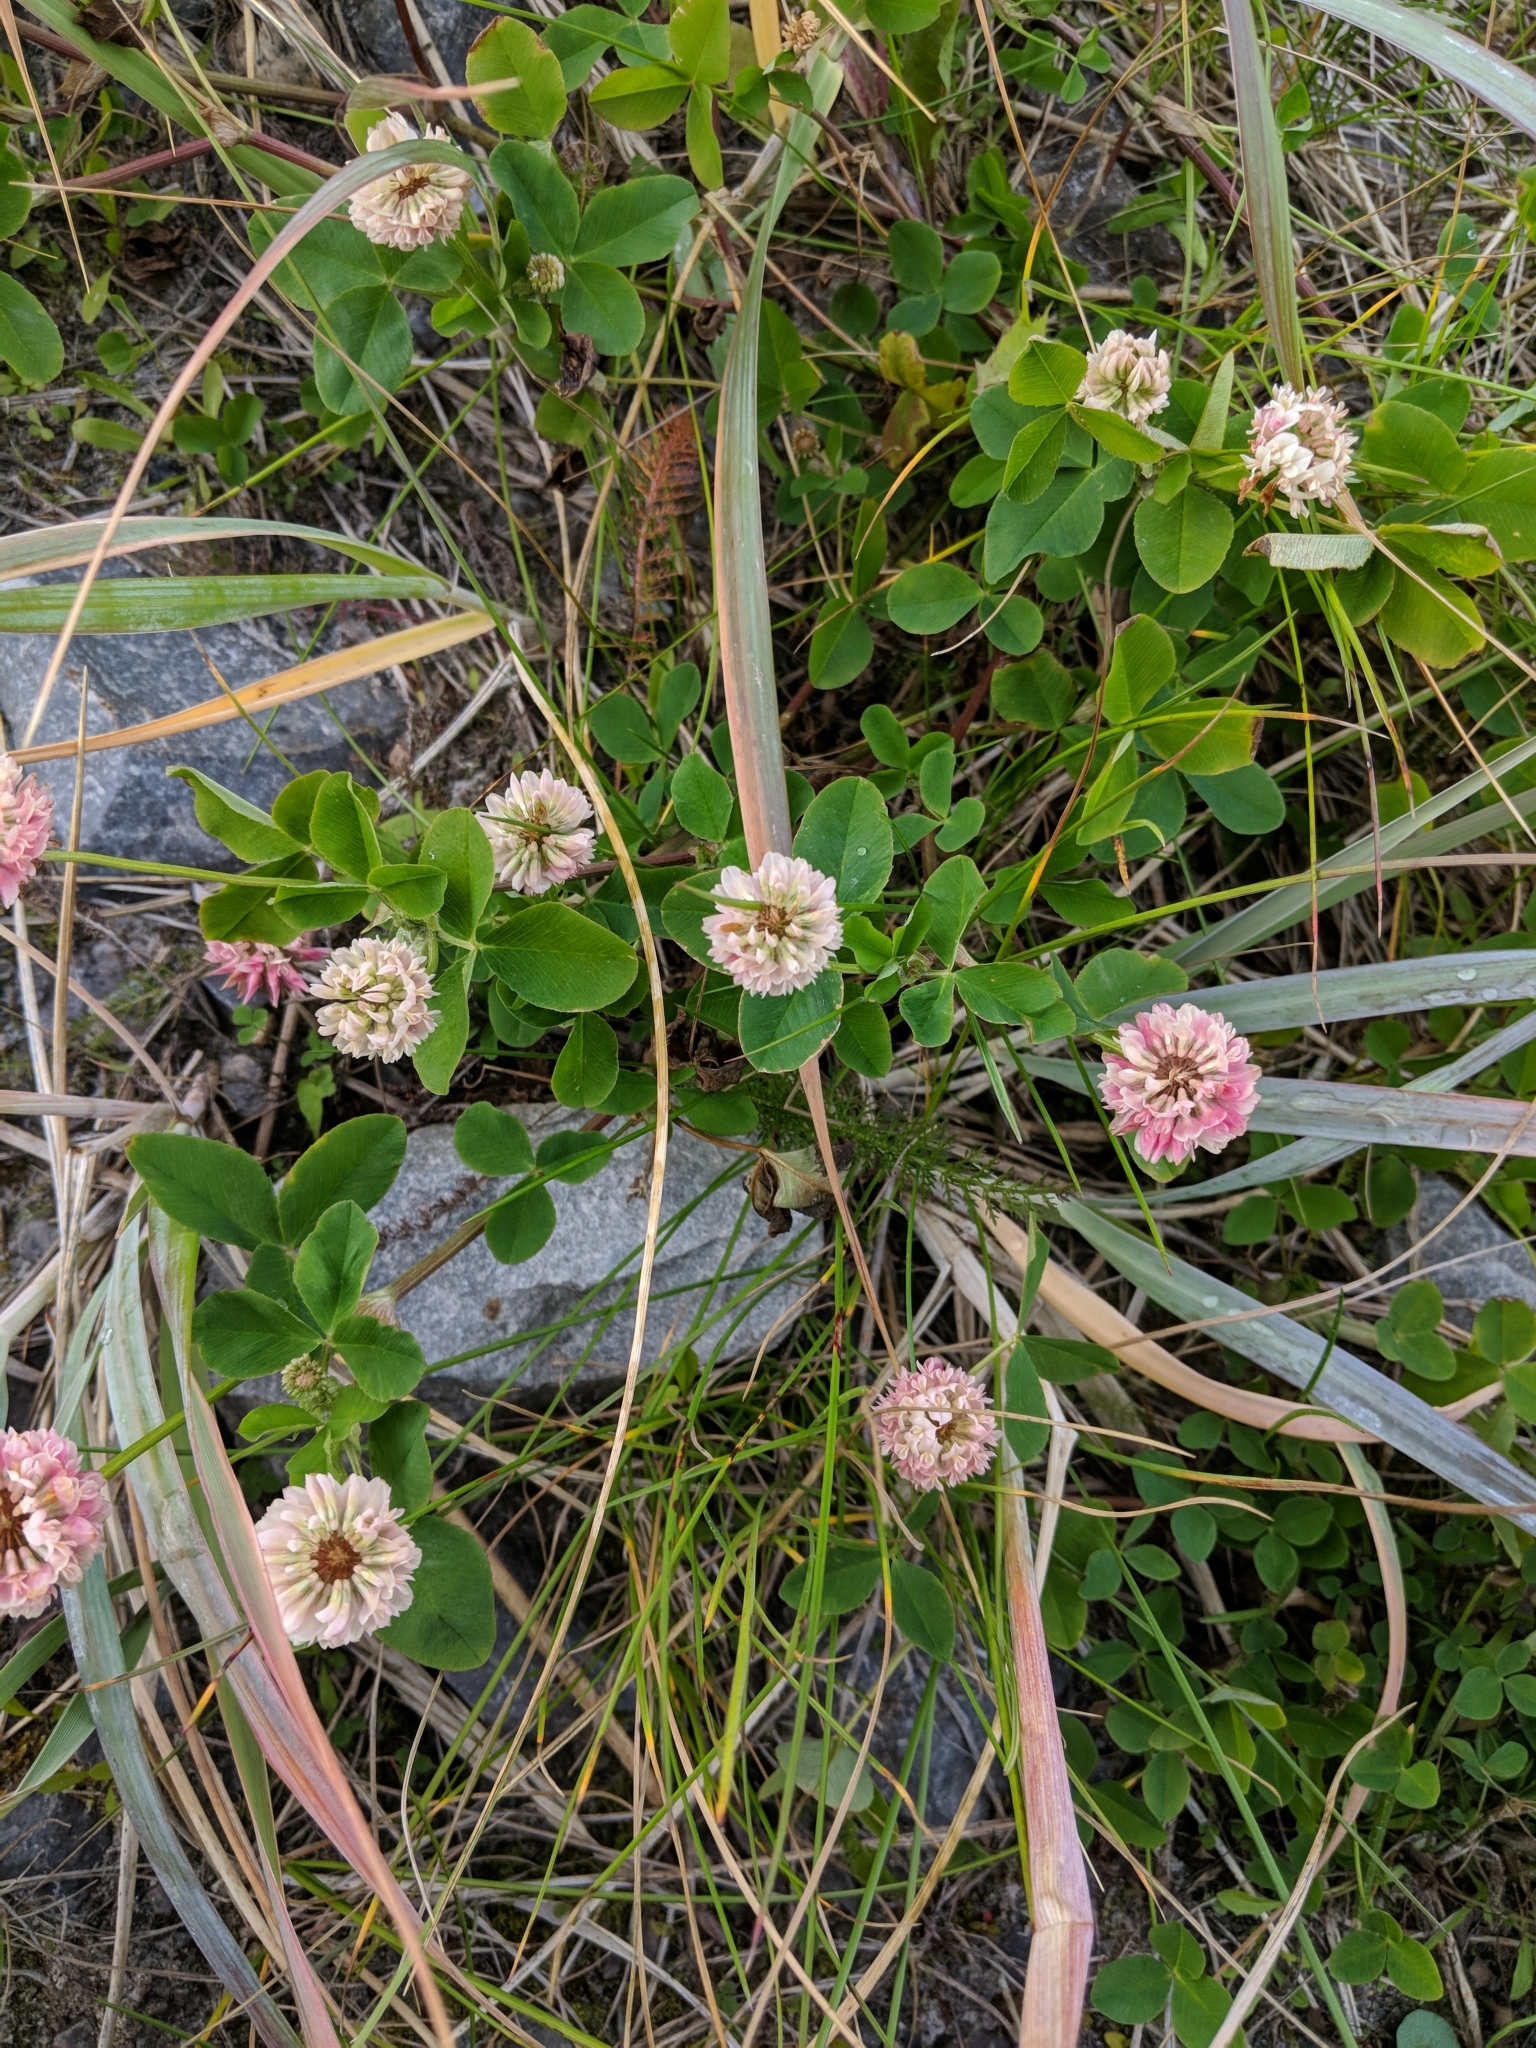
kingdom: Plantae
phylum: Tracheophyta
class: Magnoliopsida
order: Fabales
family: Fabaceae
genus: Trifolium
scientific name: Trifolium hybridum
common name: Alsike clover
